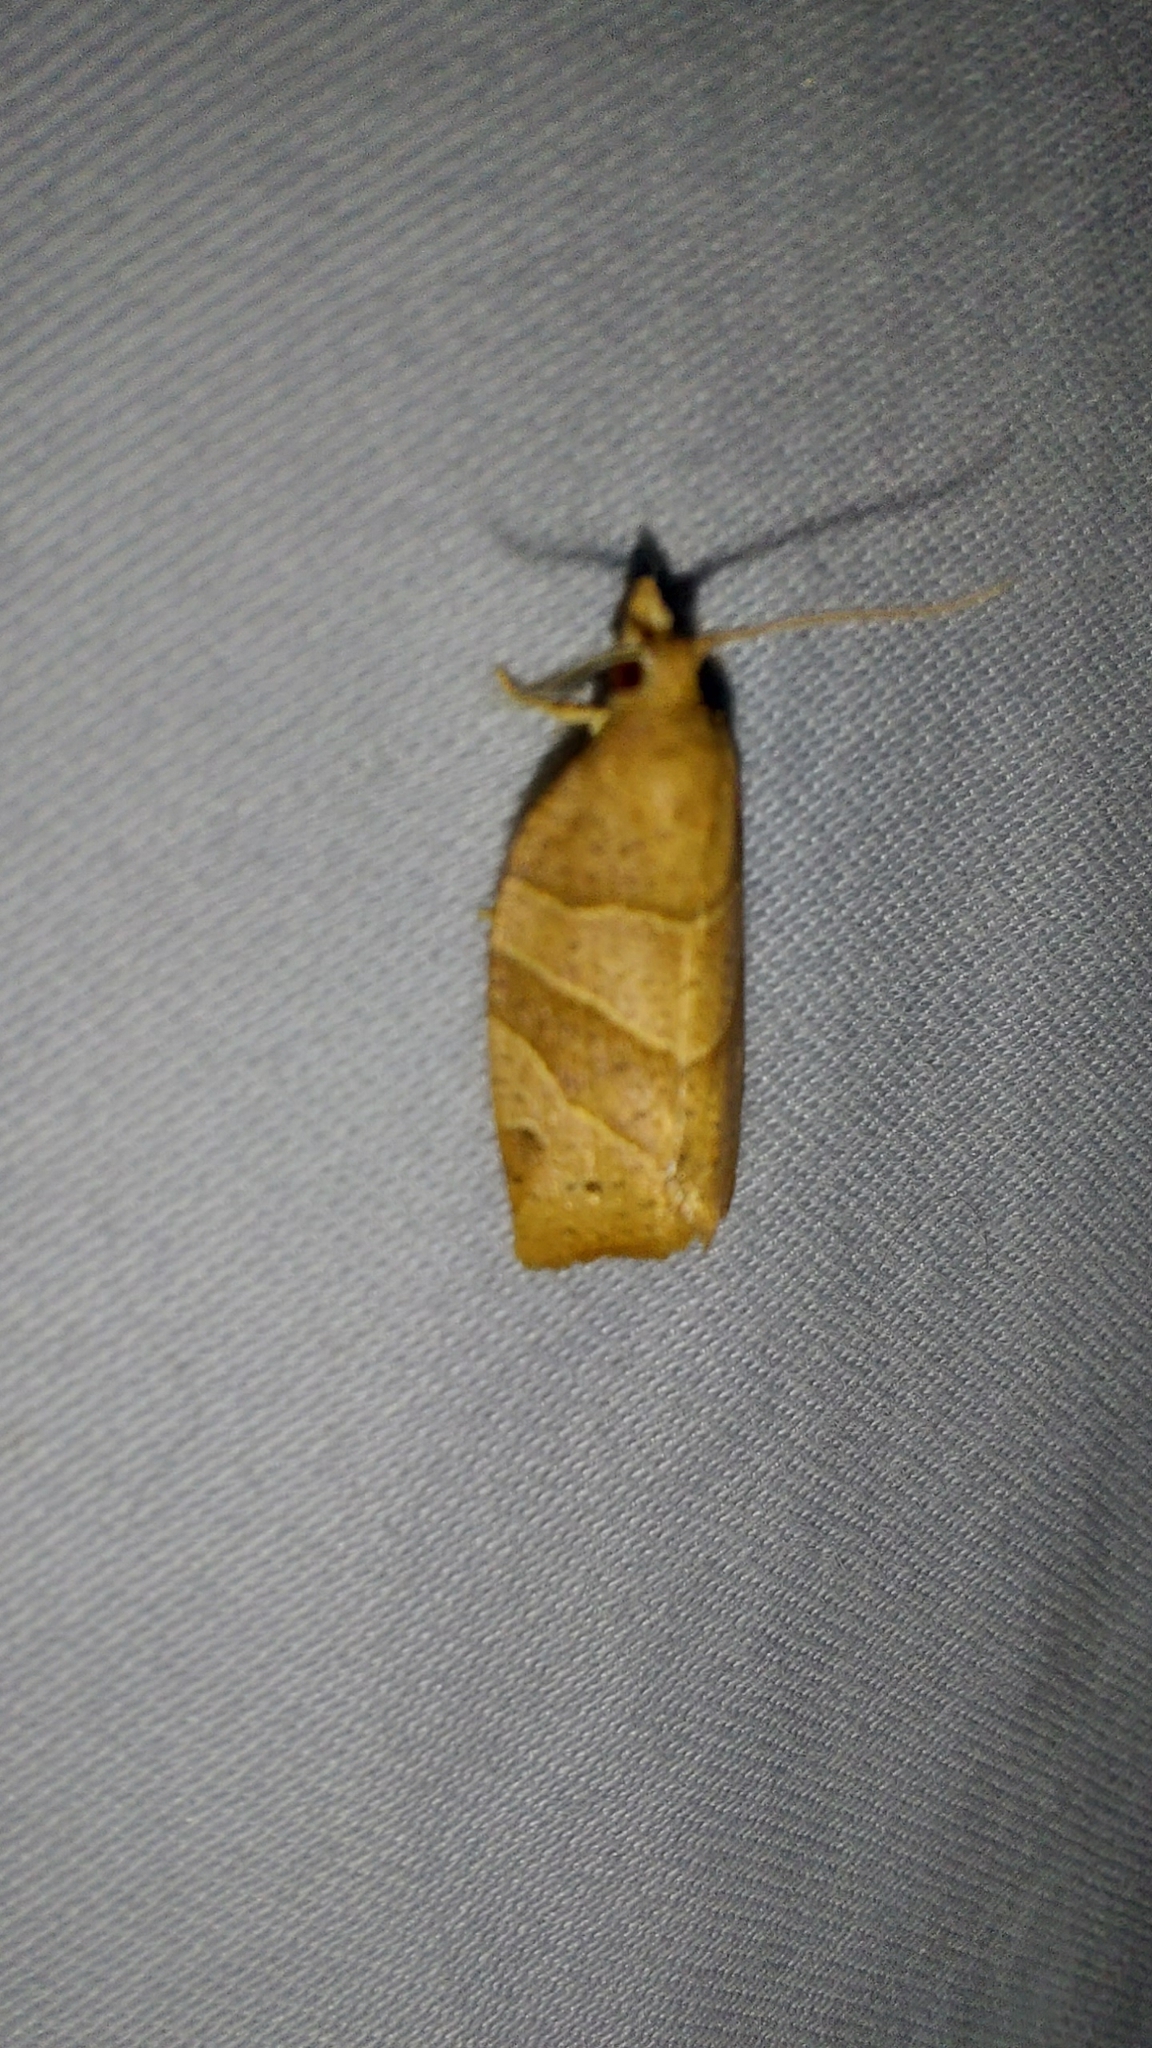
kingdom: Animalia
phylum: Arthropoda
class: Insecta
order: Lepidoptera
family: Tortricidae
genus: Pandemis
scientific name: Pandemis lamprosana
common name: Woodgrain leafroller moth
